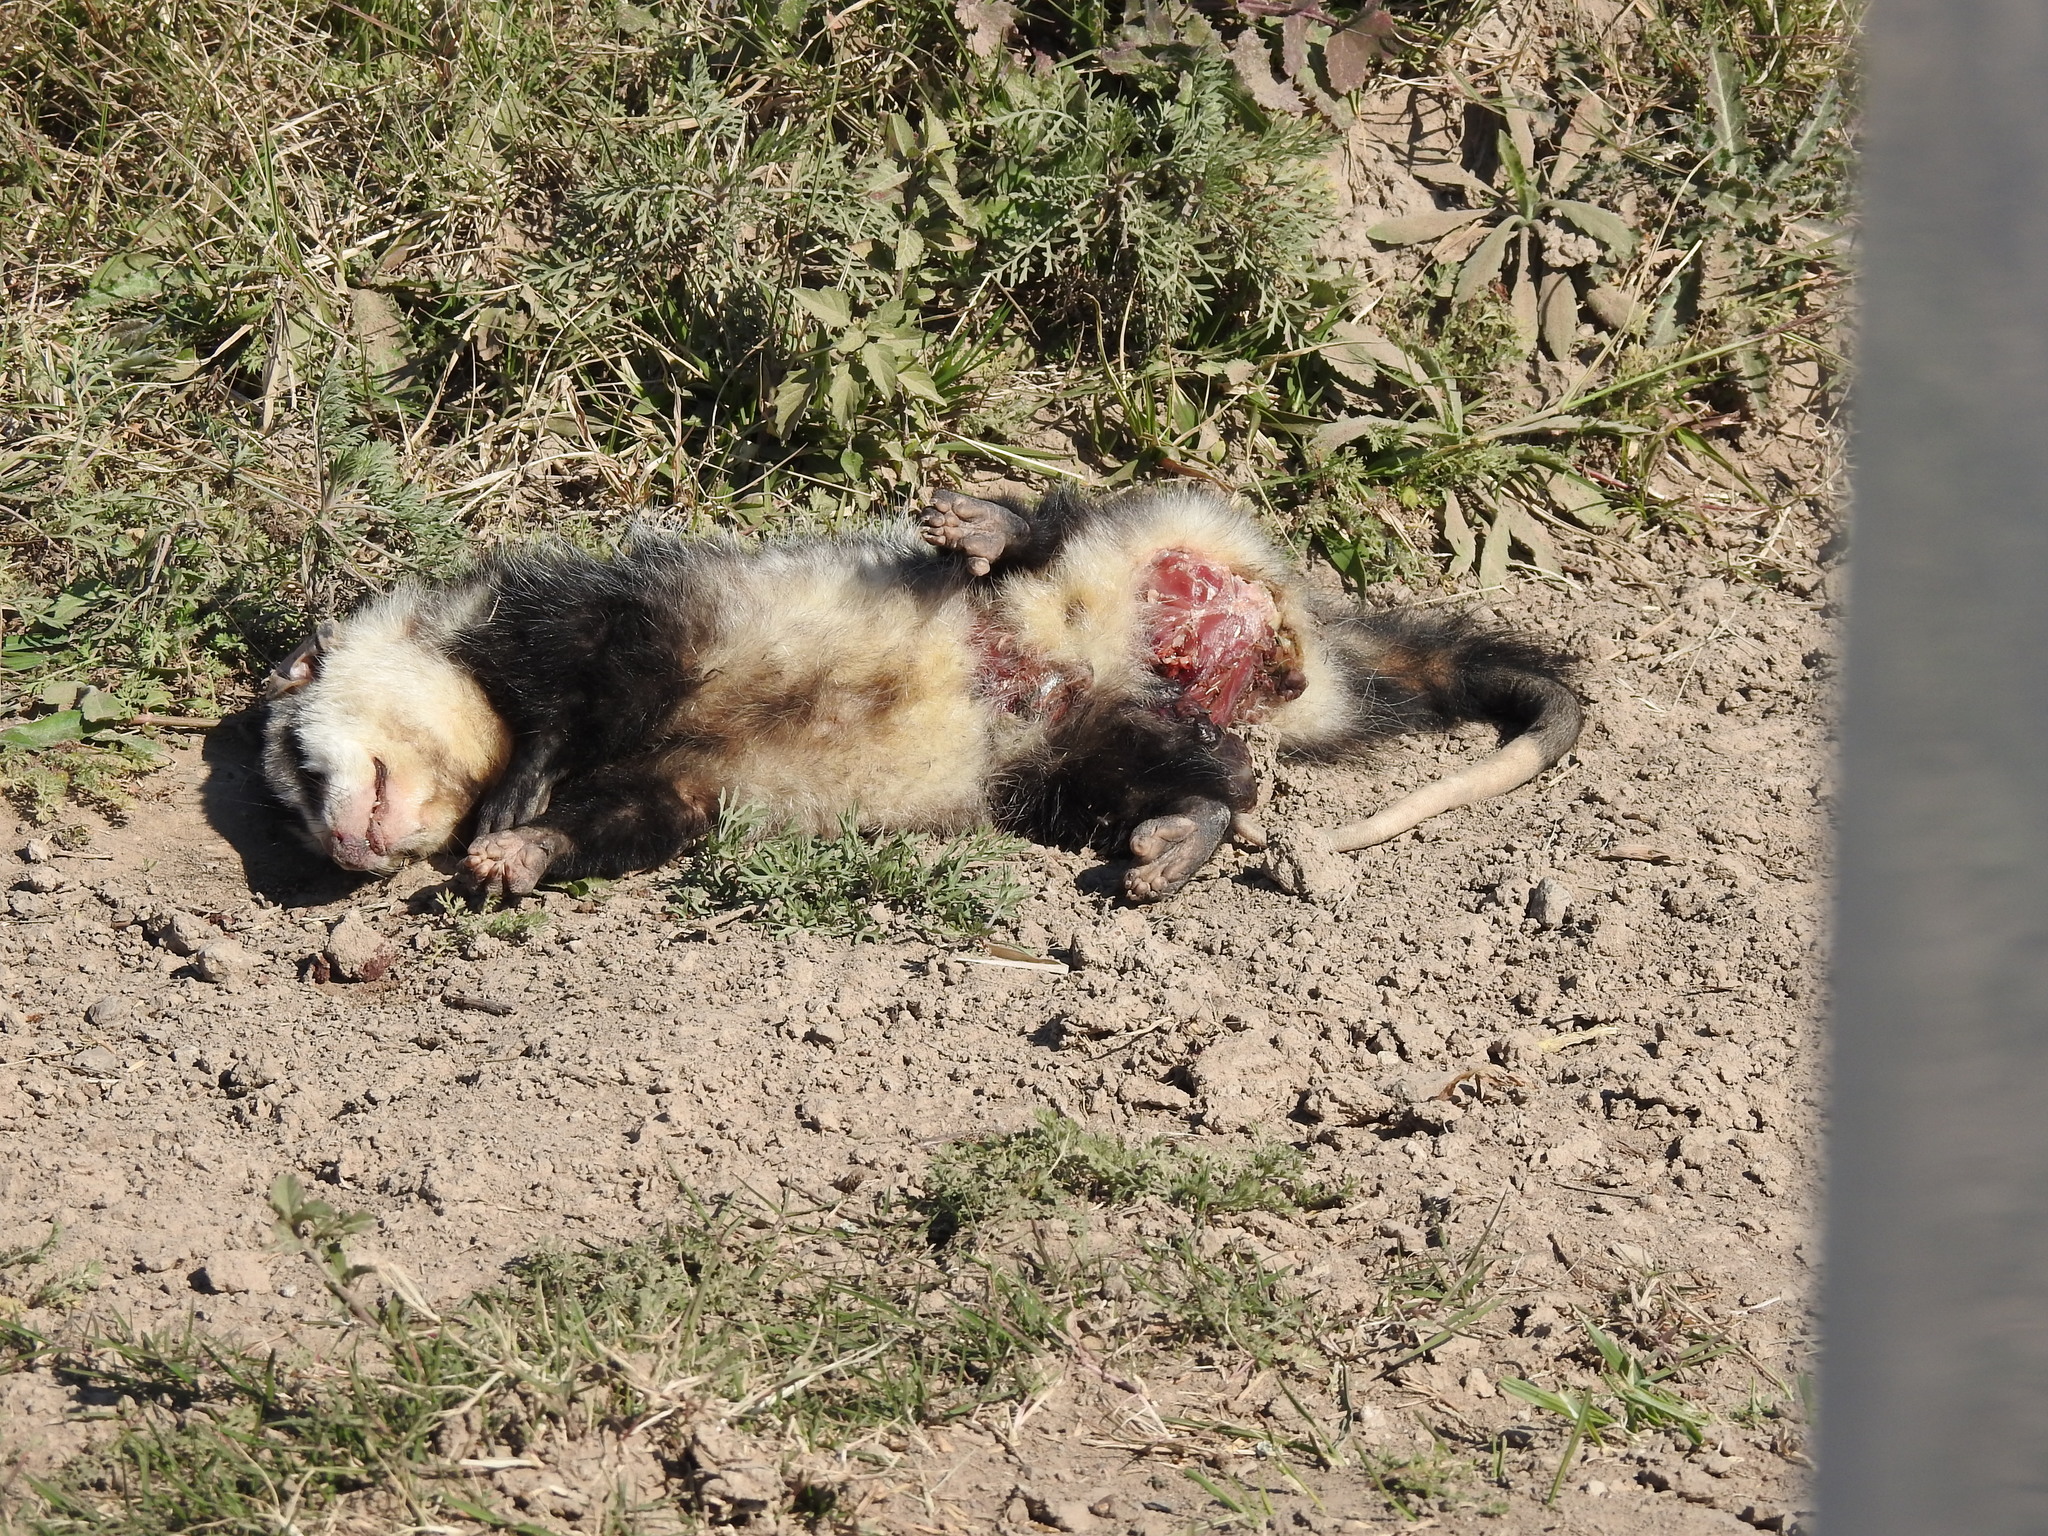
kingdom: Animalia
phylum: Chordata
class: Mammalia
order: Didelphimorphia
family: Didelphidae
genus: Didelphis
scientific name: Didelphis albiventris
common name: White-eared opossum
